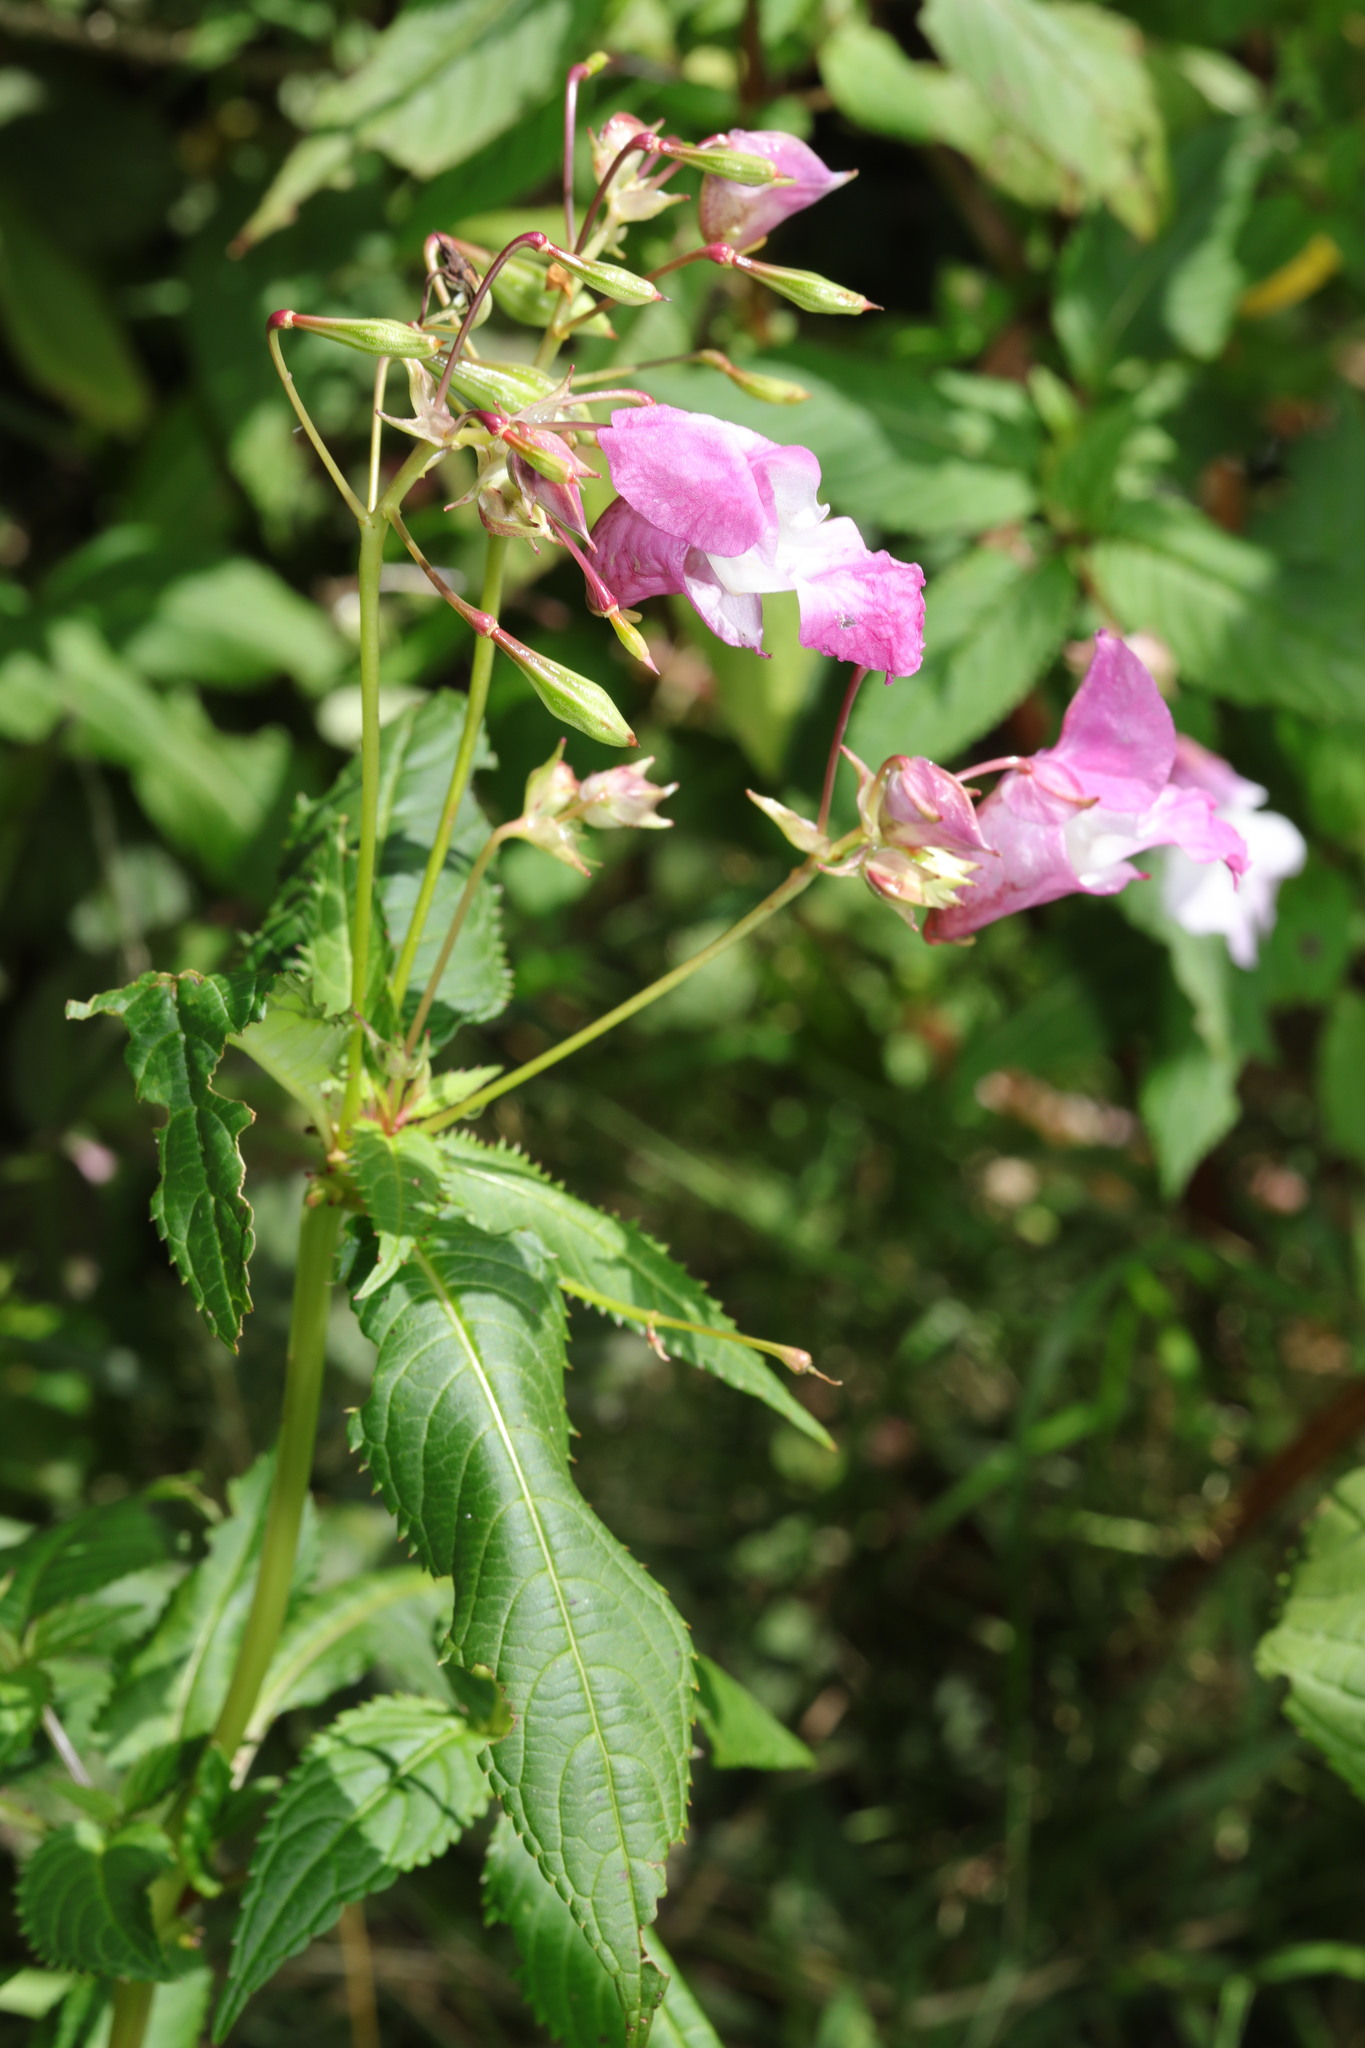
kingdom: Plantae
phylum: Tracheophyta
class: Magnoliopsida
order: Ericales
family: Balsaminaceae
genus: Impatiens
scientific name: Impatiens glandulifera
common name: Himalayan balsam
